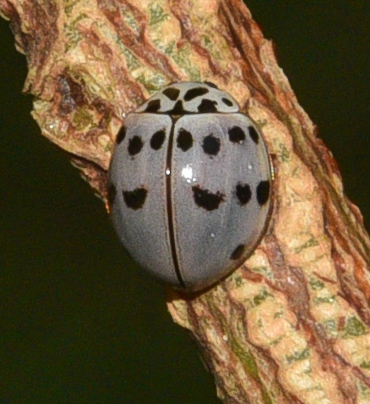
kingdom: Animalia
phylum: Arthropoda
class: Insecta
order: Coleoptera
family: Coccinellidae
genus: Olla
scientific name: Olla v-nigrum
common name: Ashy gray lady beetle
